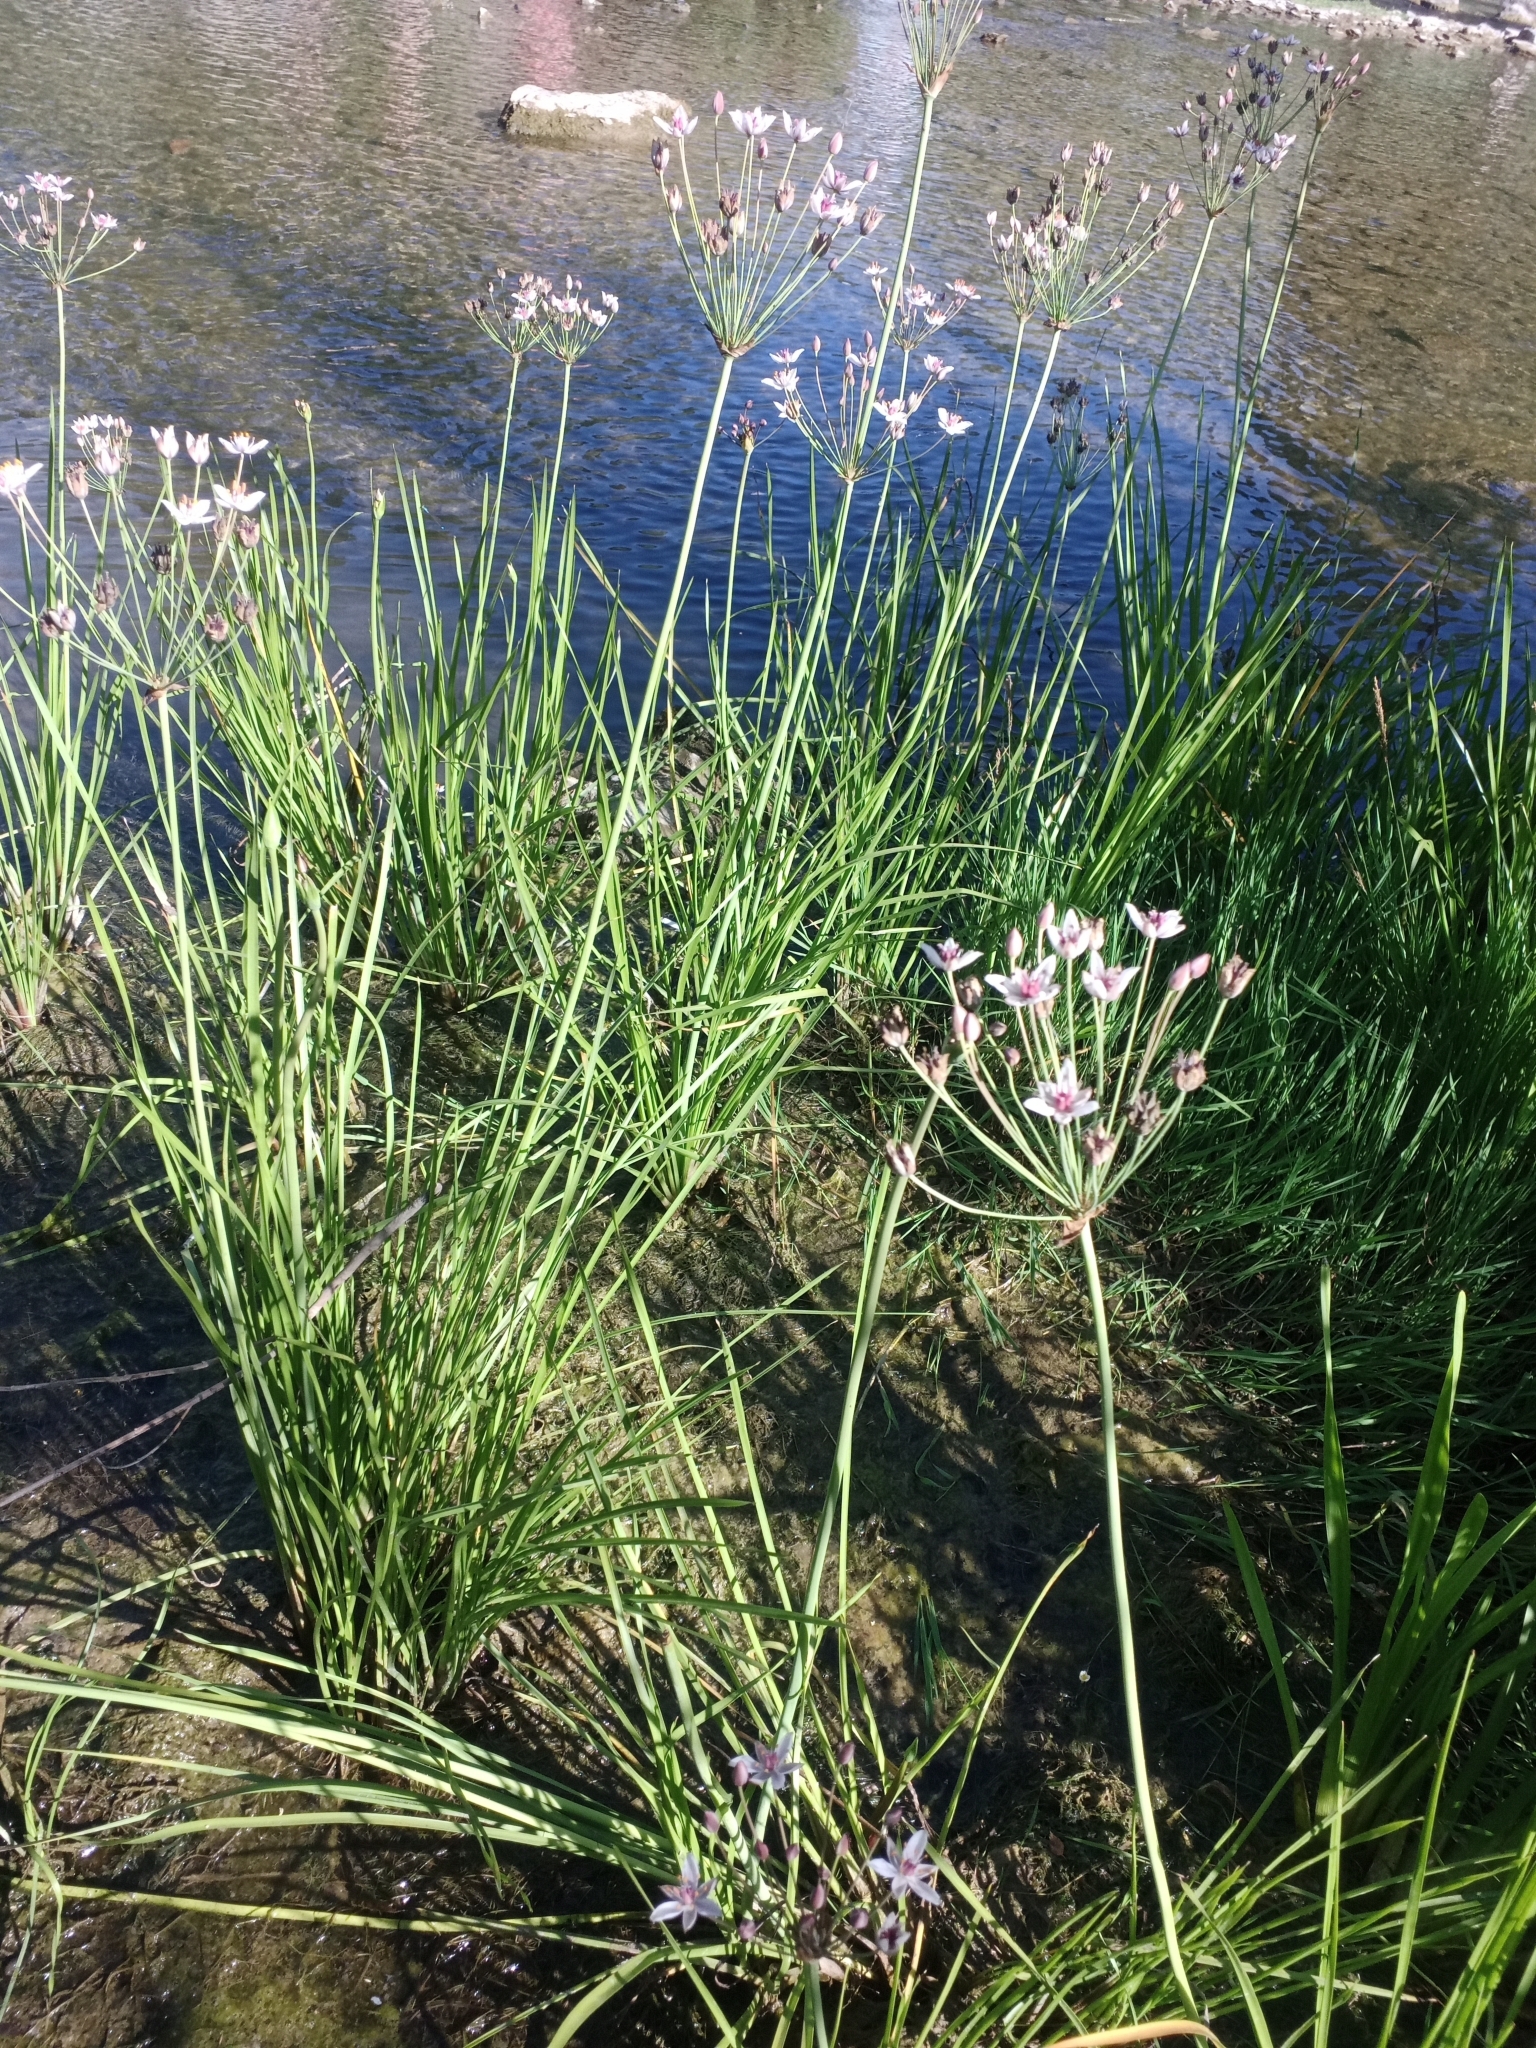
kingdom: Plantae
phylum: Tracheophyta
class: Liliopsida
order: Alismatales
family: Butomaceae
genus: Butomus
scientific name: Butomus umbellatus
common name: Flowering-rush
